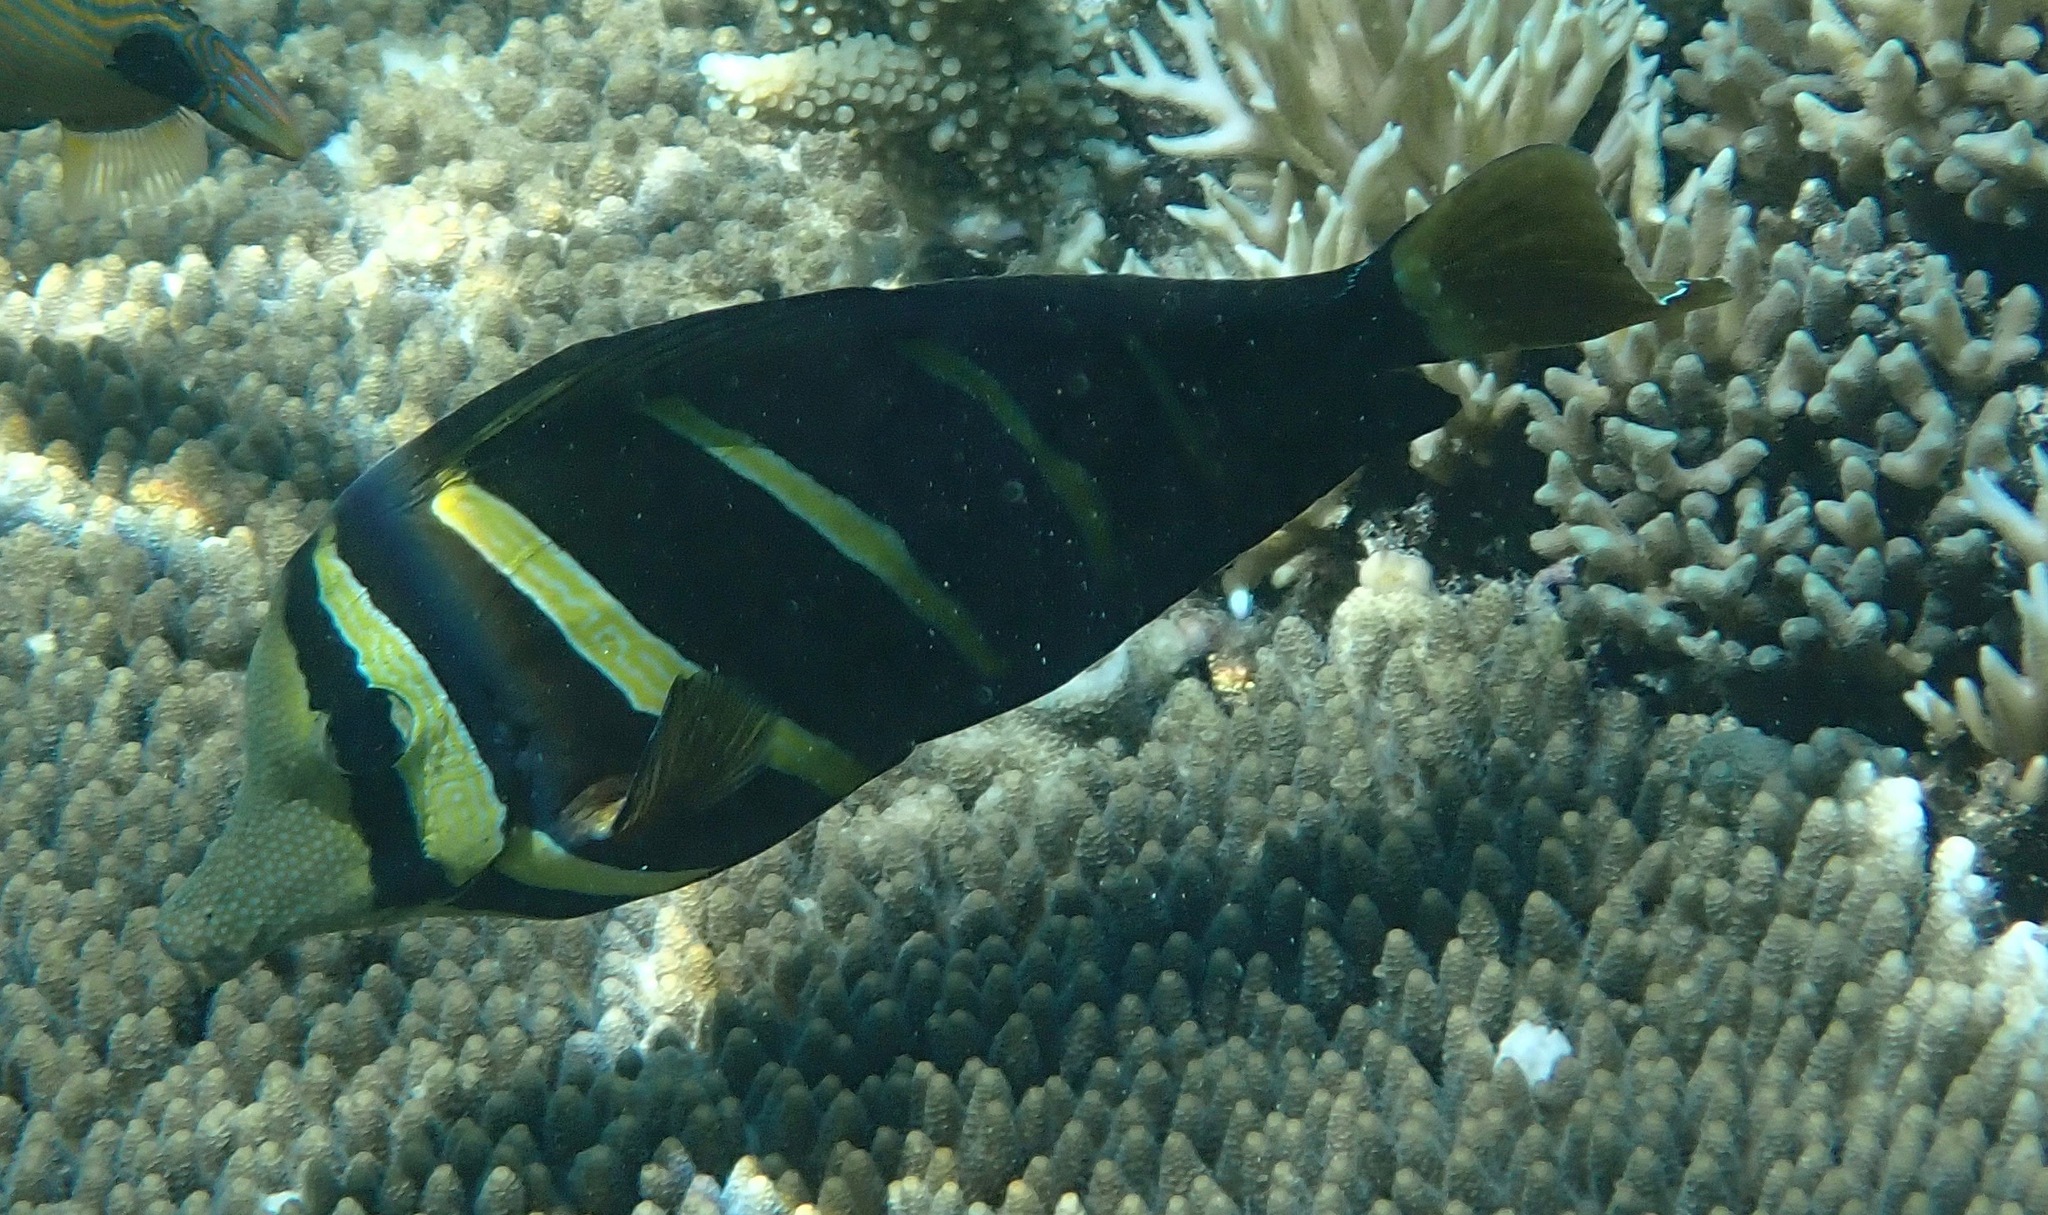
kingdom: Animalia
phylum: Chordata
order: Perciformes
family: Acanthuridae
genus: Zebrasoma
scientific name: Zebrasoma veliferum
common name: Sailfin surgeonfish
